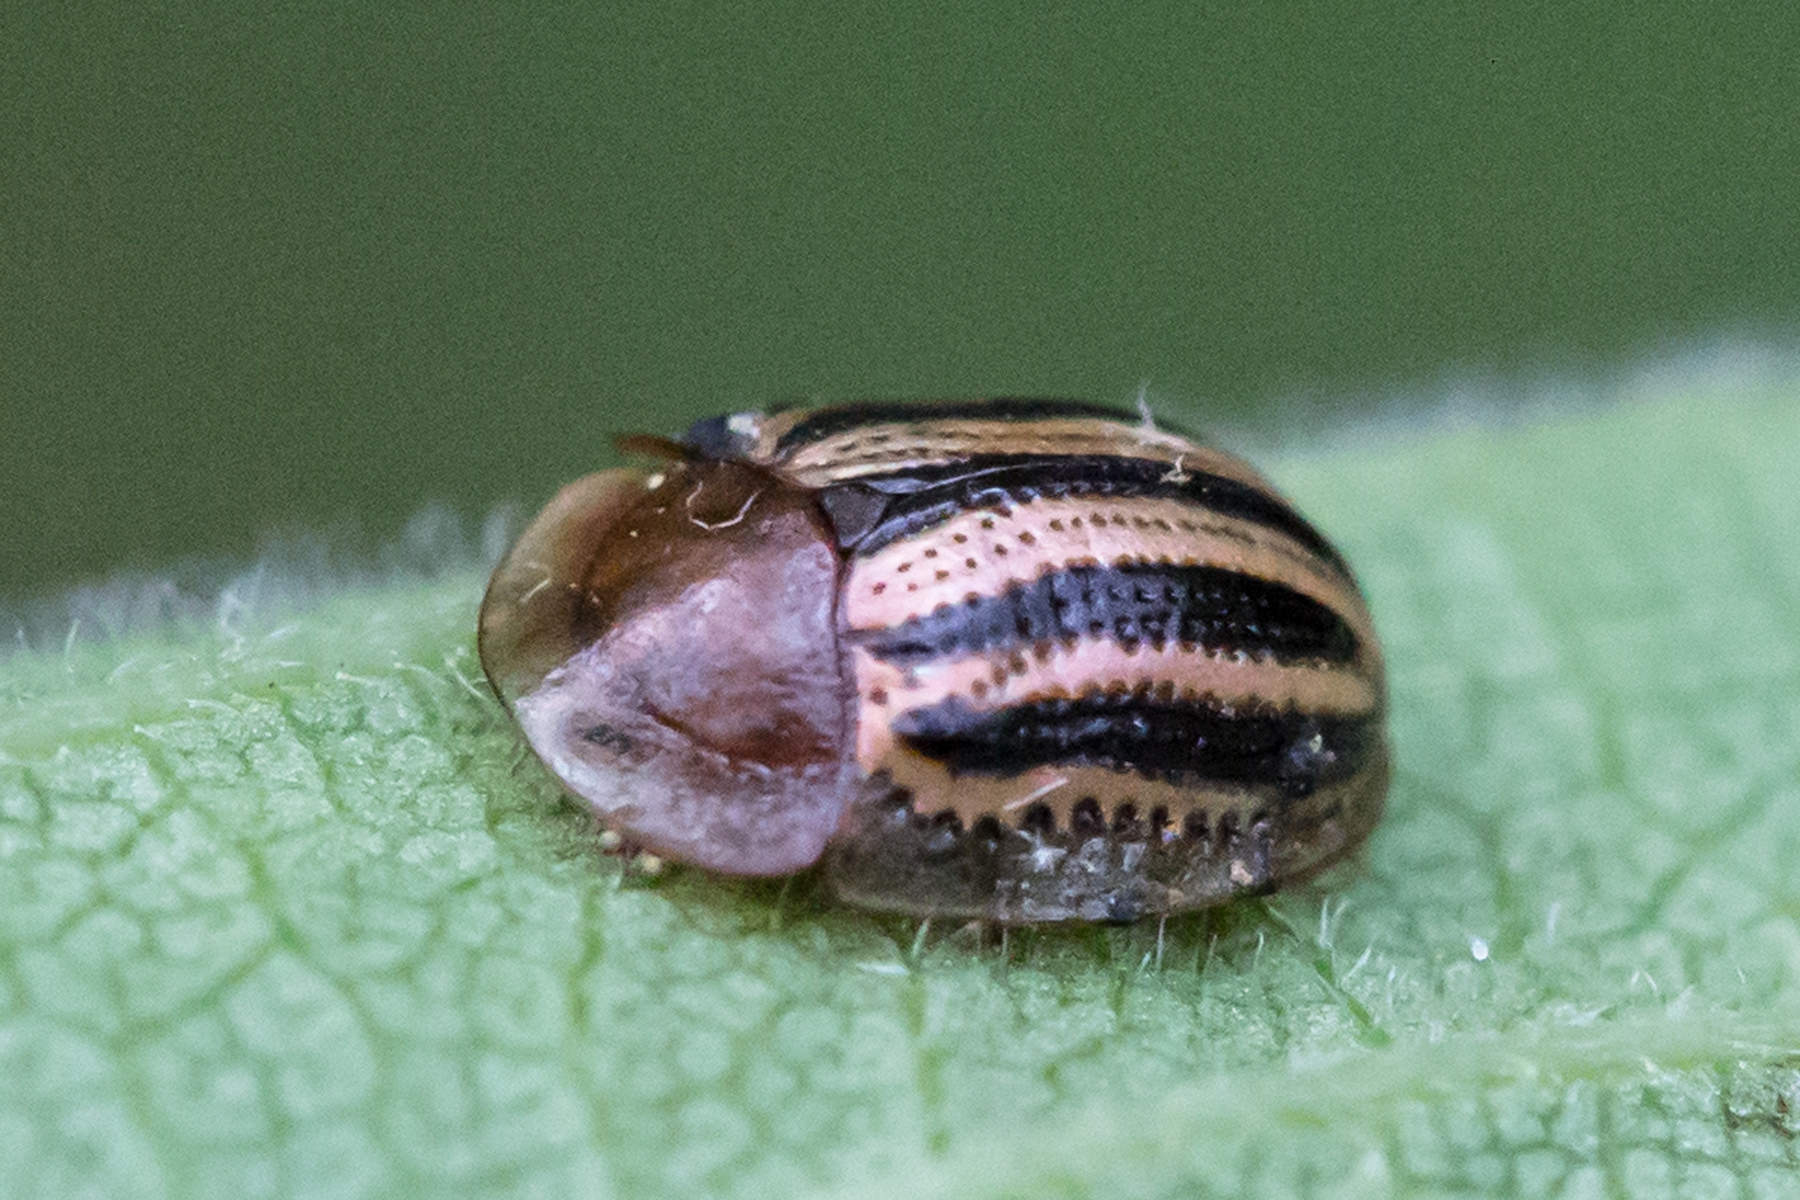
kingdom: Animalia
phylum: Arthropoda
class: Insecta
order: Coleoptera
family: Chrysomelidae
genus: Agroiconota
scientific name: Agroiconota bivittata
